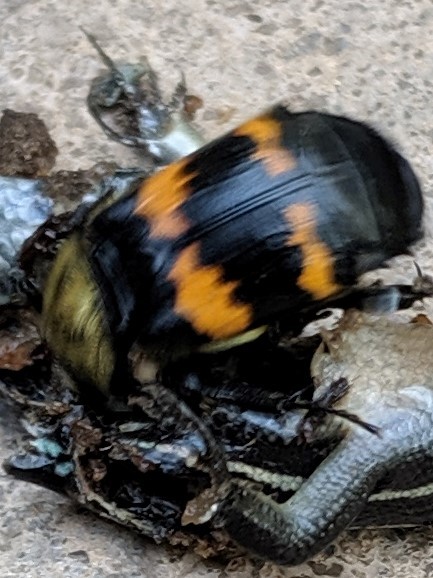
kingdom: Animalia
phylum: Arthropoda
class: Insecta
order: Coleoptera
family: Staphylinidae
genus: Nicrophorus
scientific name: Nicrophorus tomentosus
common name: Tomentose burying beetle
